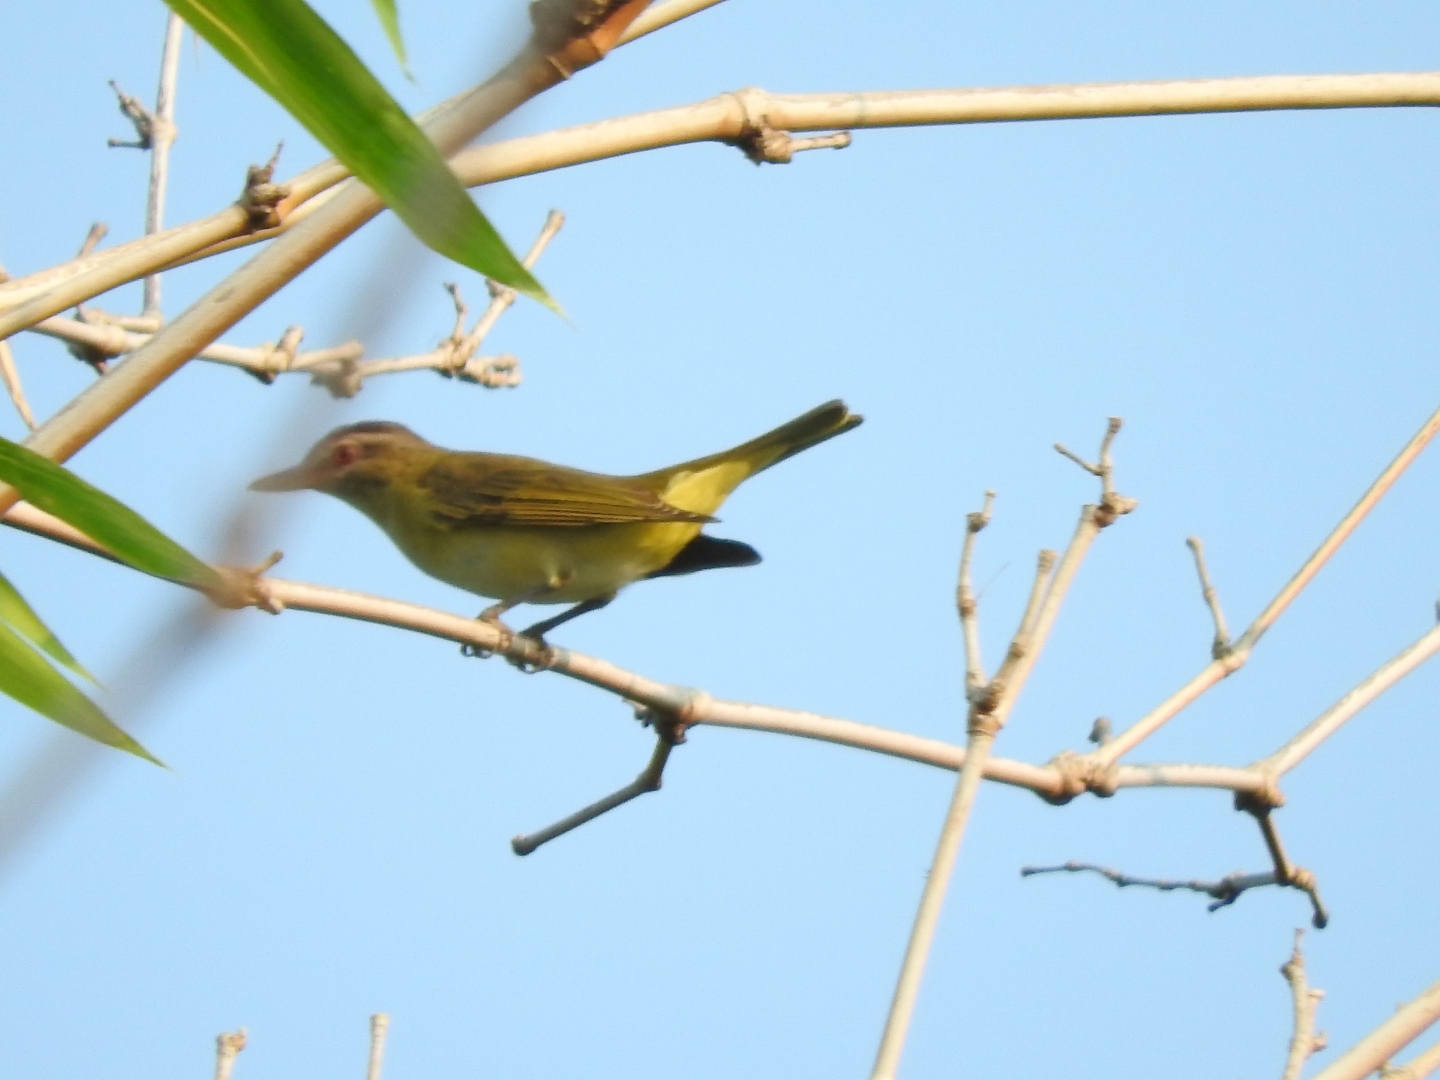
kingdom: Animalia
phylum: Chordata
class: Aves
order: Passeriformes
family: Vireonidae
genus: Vireo
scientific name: Vireo flavoviridis
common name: Yellow-green vireo
